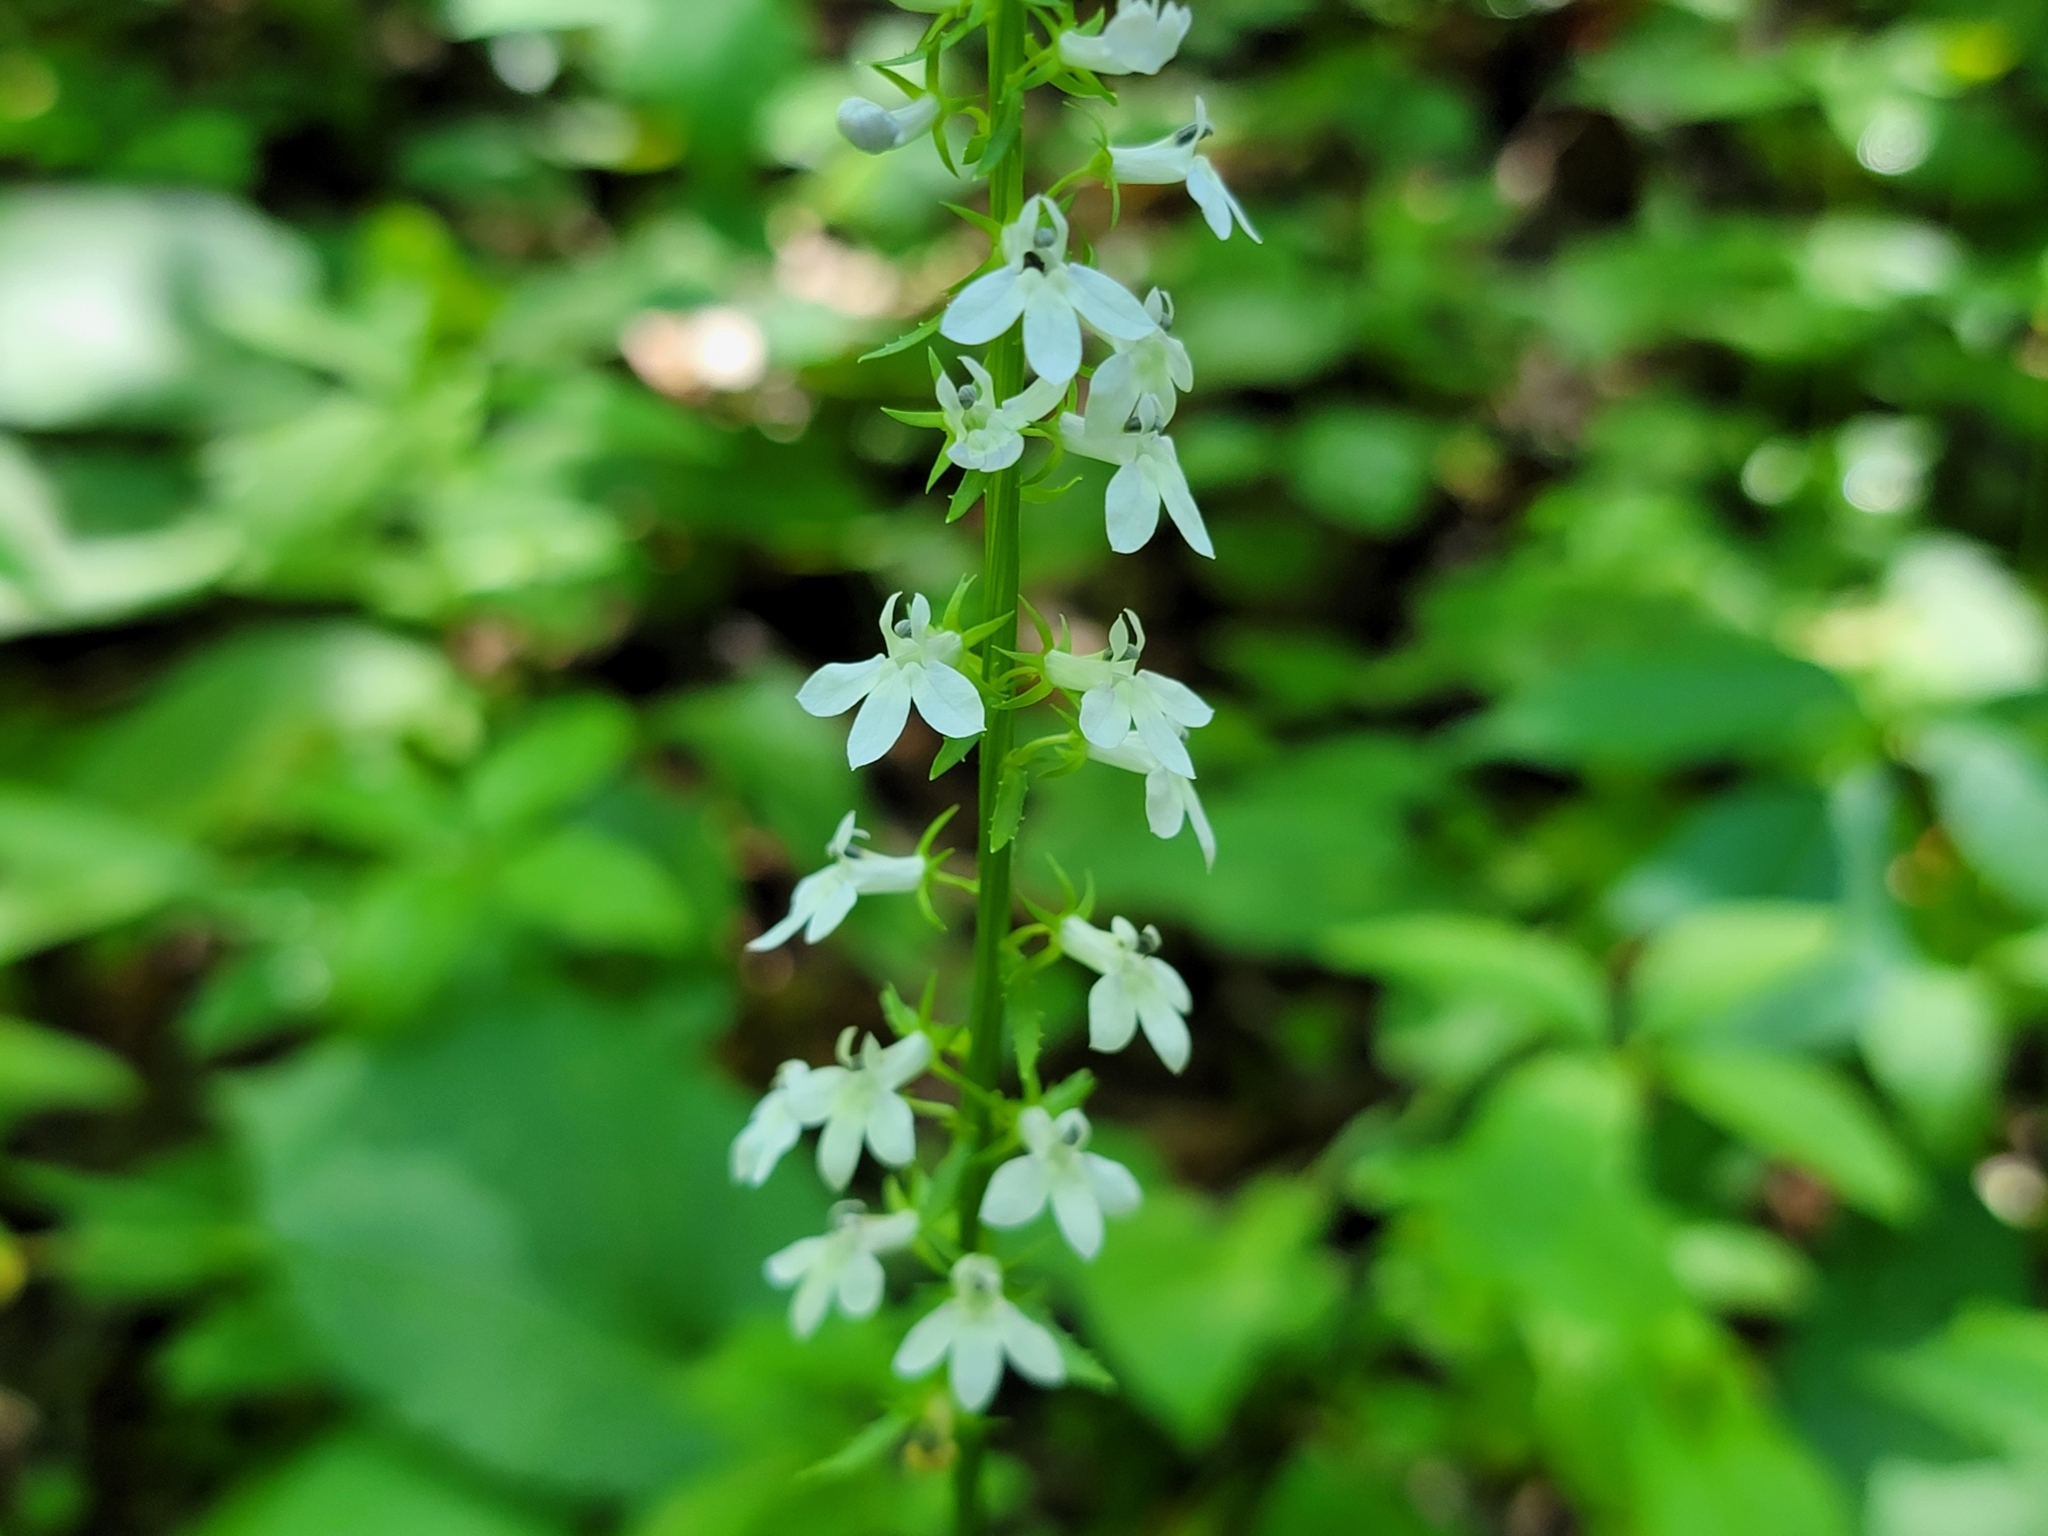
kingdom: Plantae
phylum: Tracheophyta
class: Magnoliopsida
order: Asterales
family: Campanulaceae
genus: Lobelia
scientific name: Lobelia spicata
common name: Pale-spike lobelia
